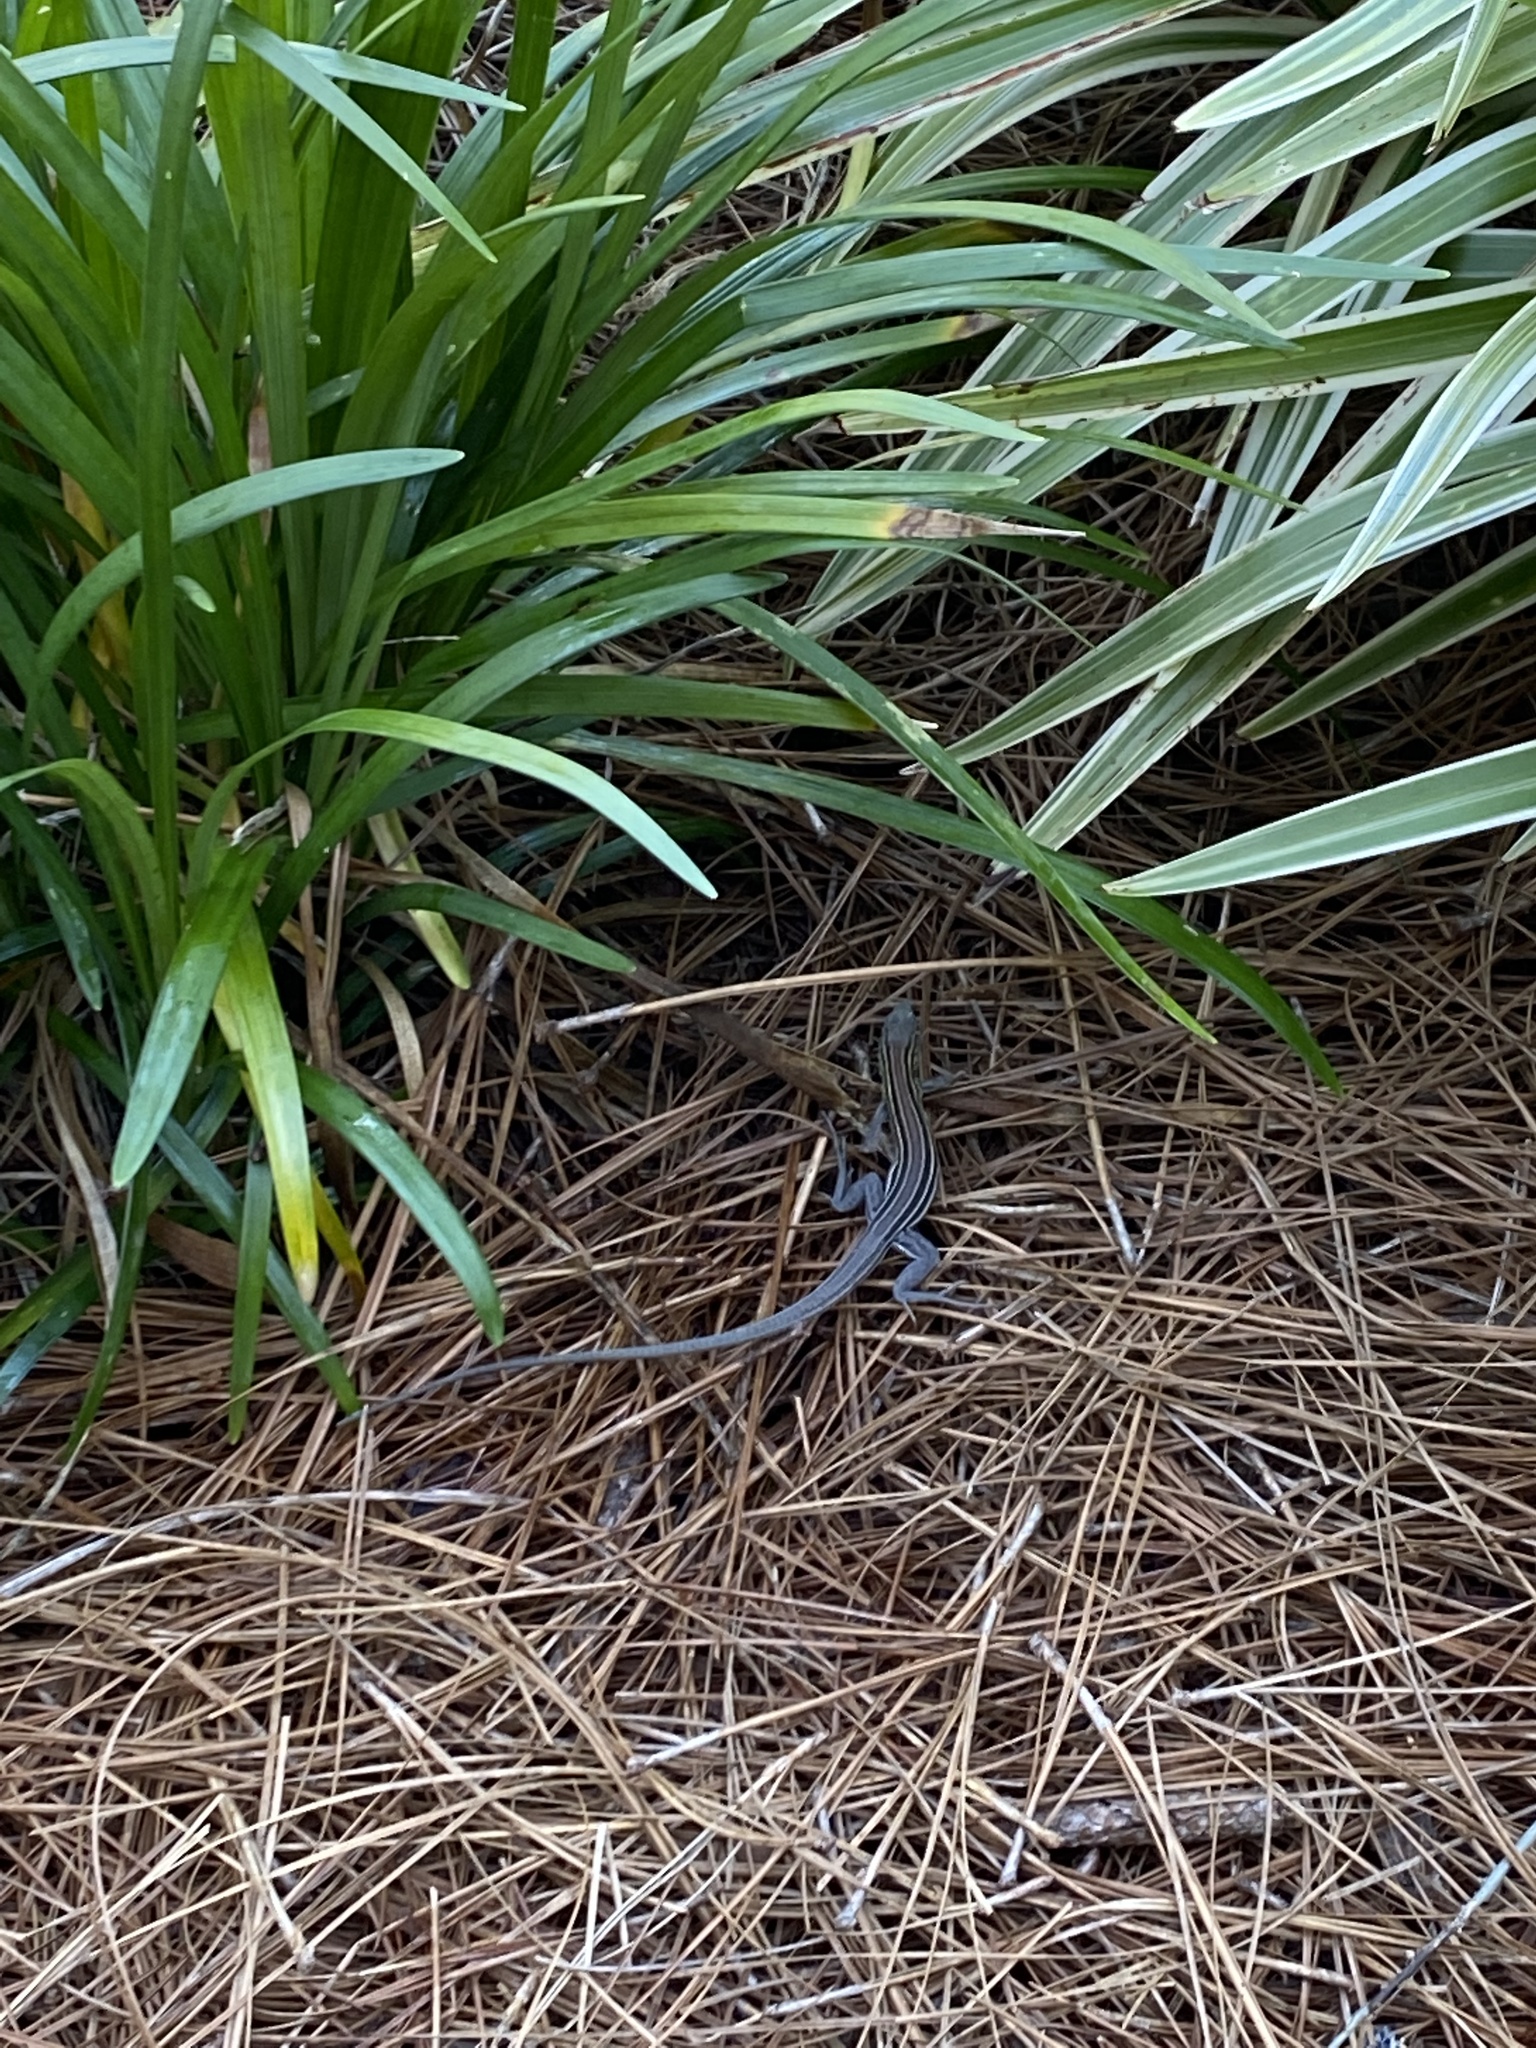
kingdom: Animalia
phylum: Chordata
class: Squamata
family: Teiidae
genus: Aspidoscelis
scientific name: Aspidoscelis sexlineatus
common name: Six-lined racerunner
